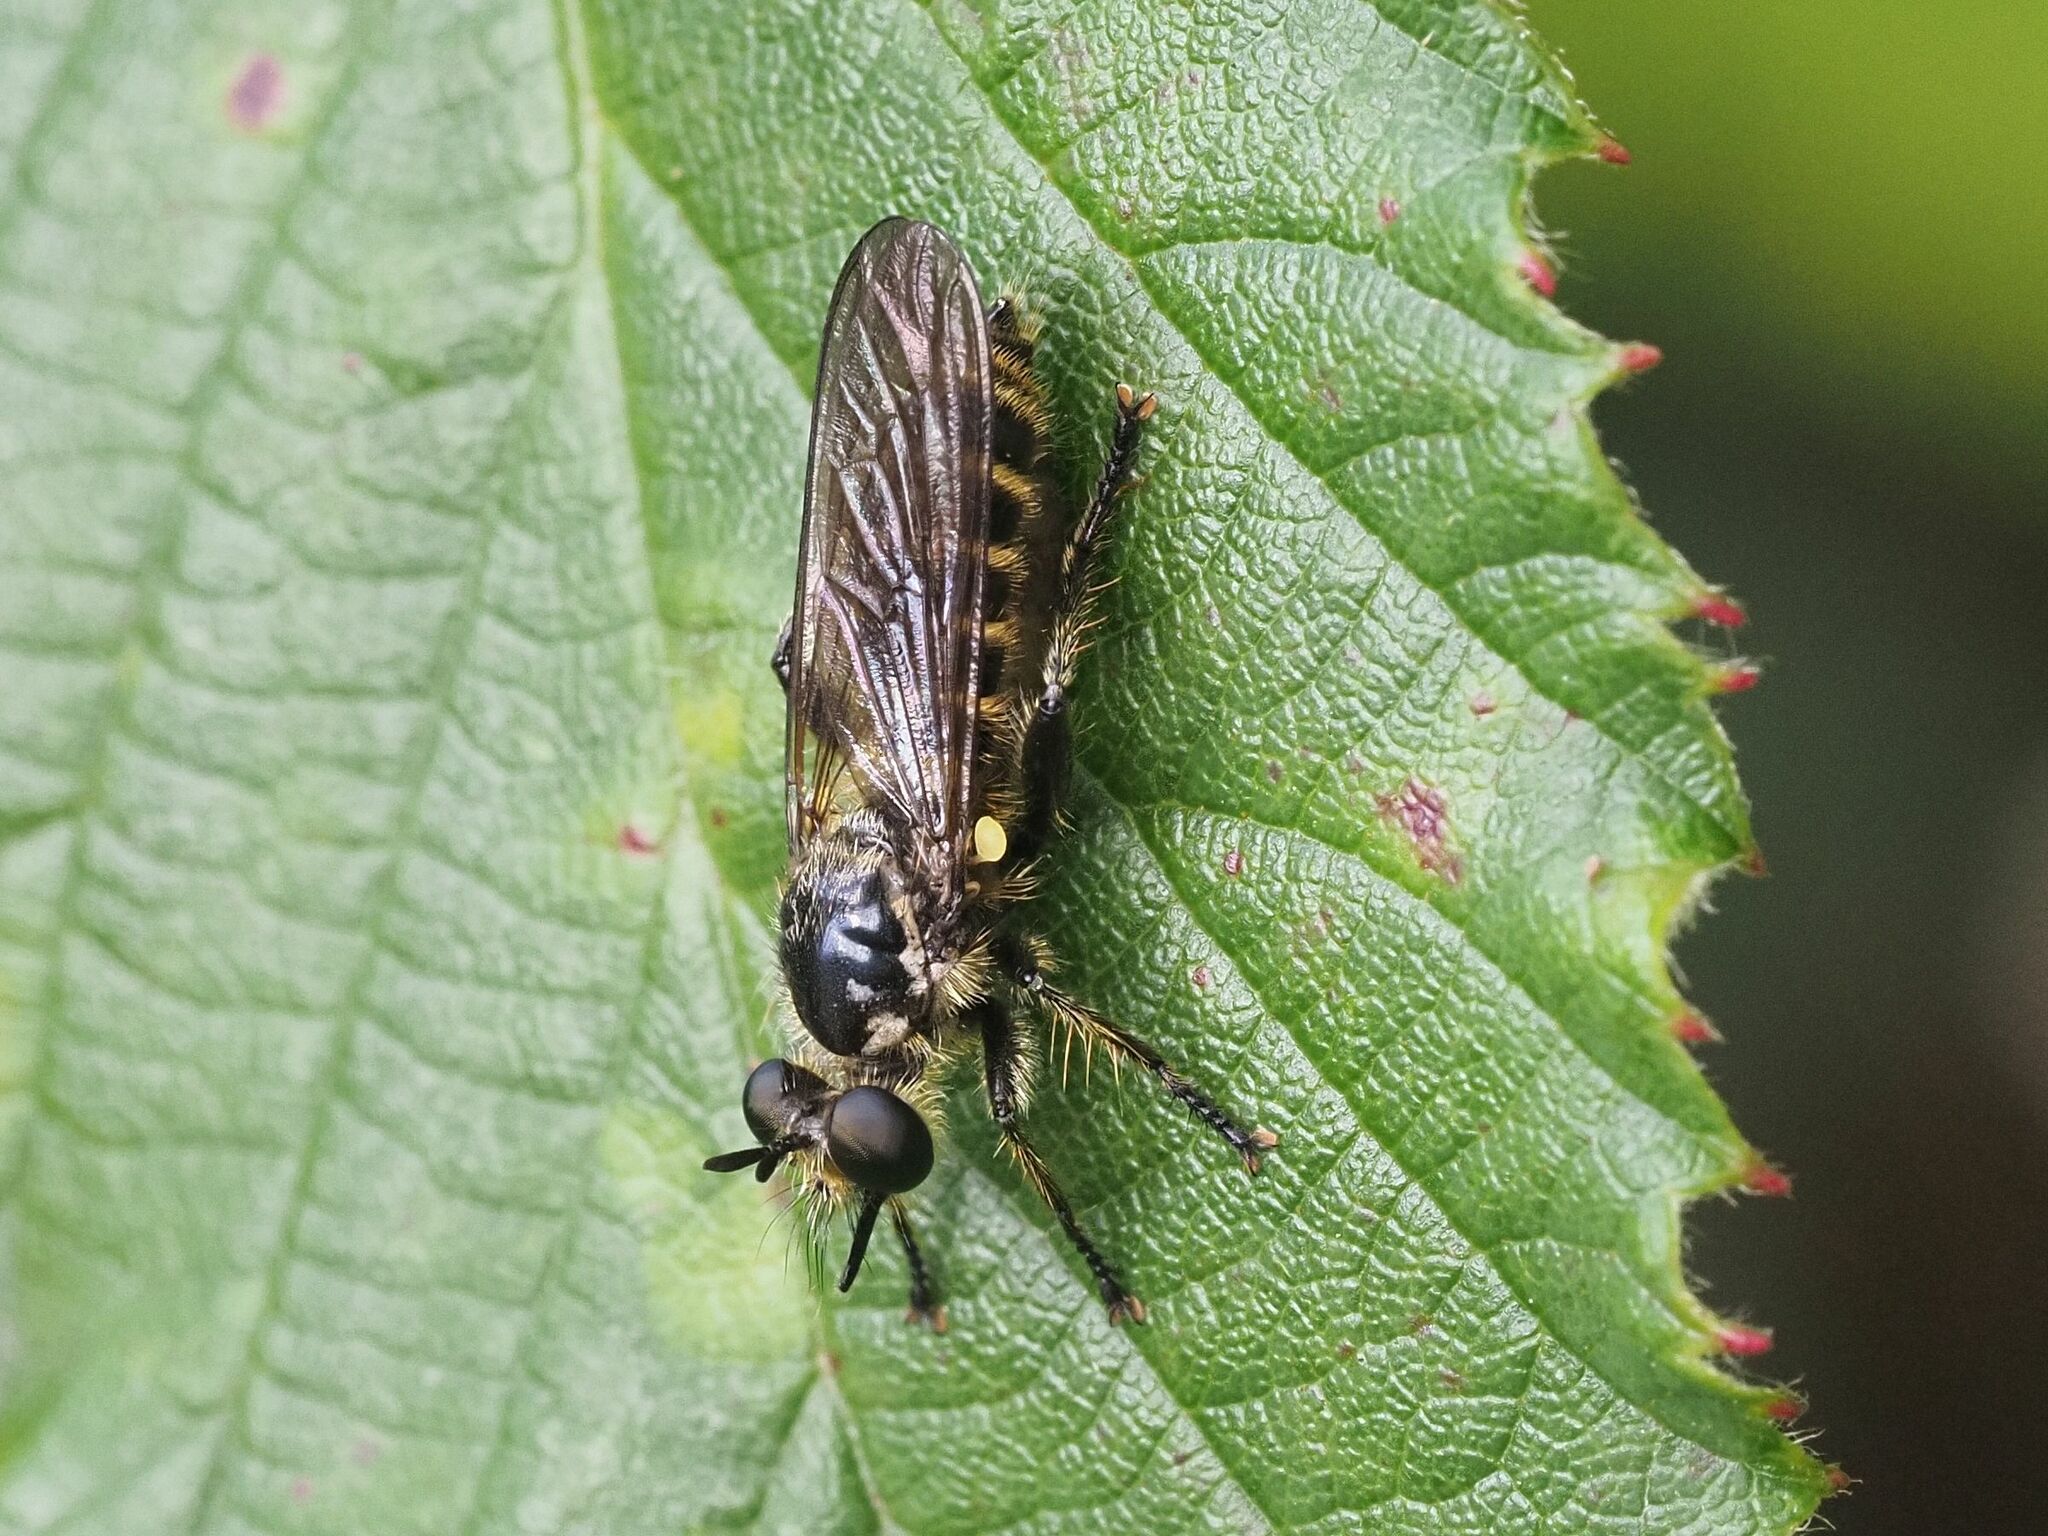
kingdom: Animalia
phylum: Arthropoda
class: Insecta
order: Diptera
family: Asilidae
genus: Lamyra
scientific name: Lamyra fimbriata
